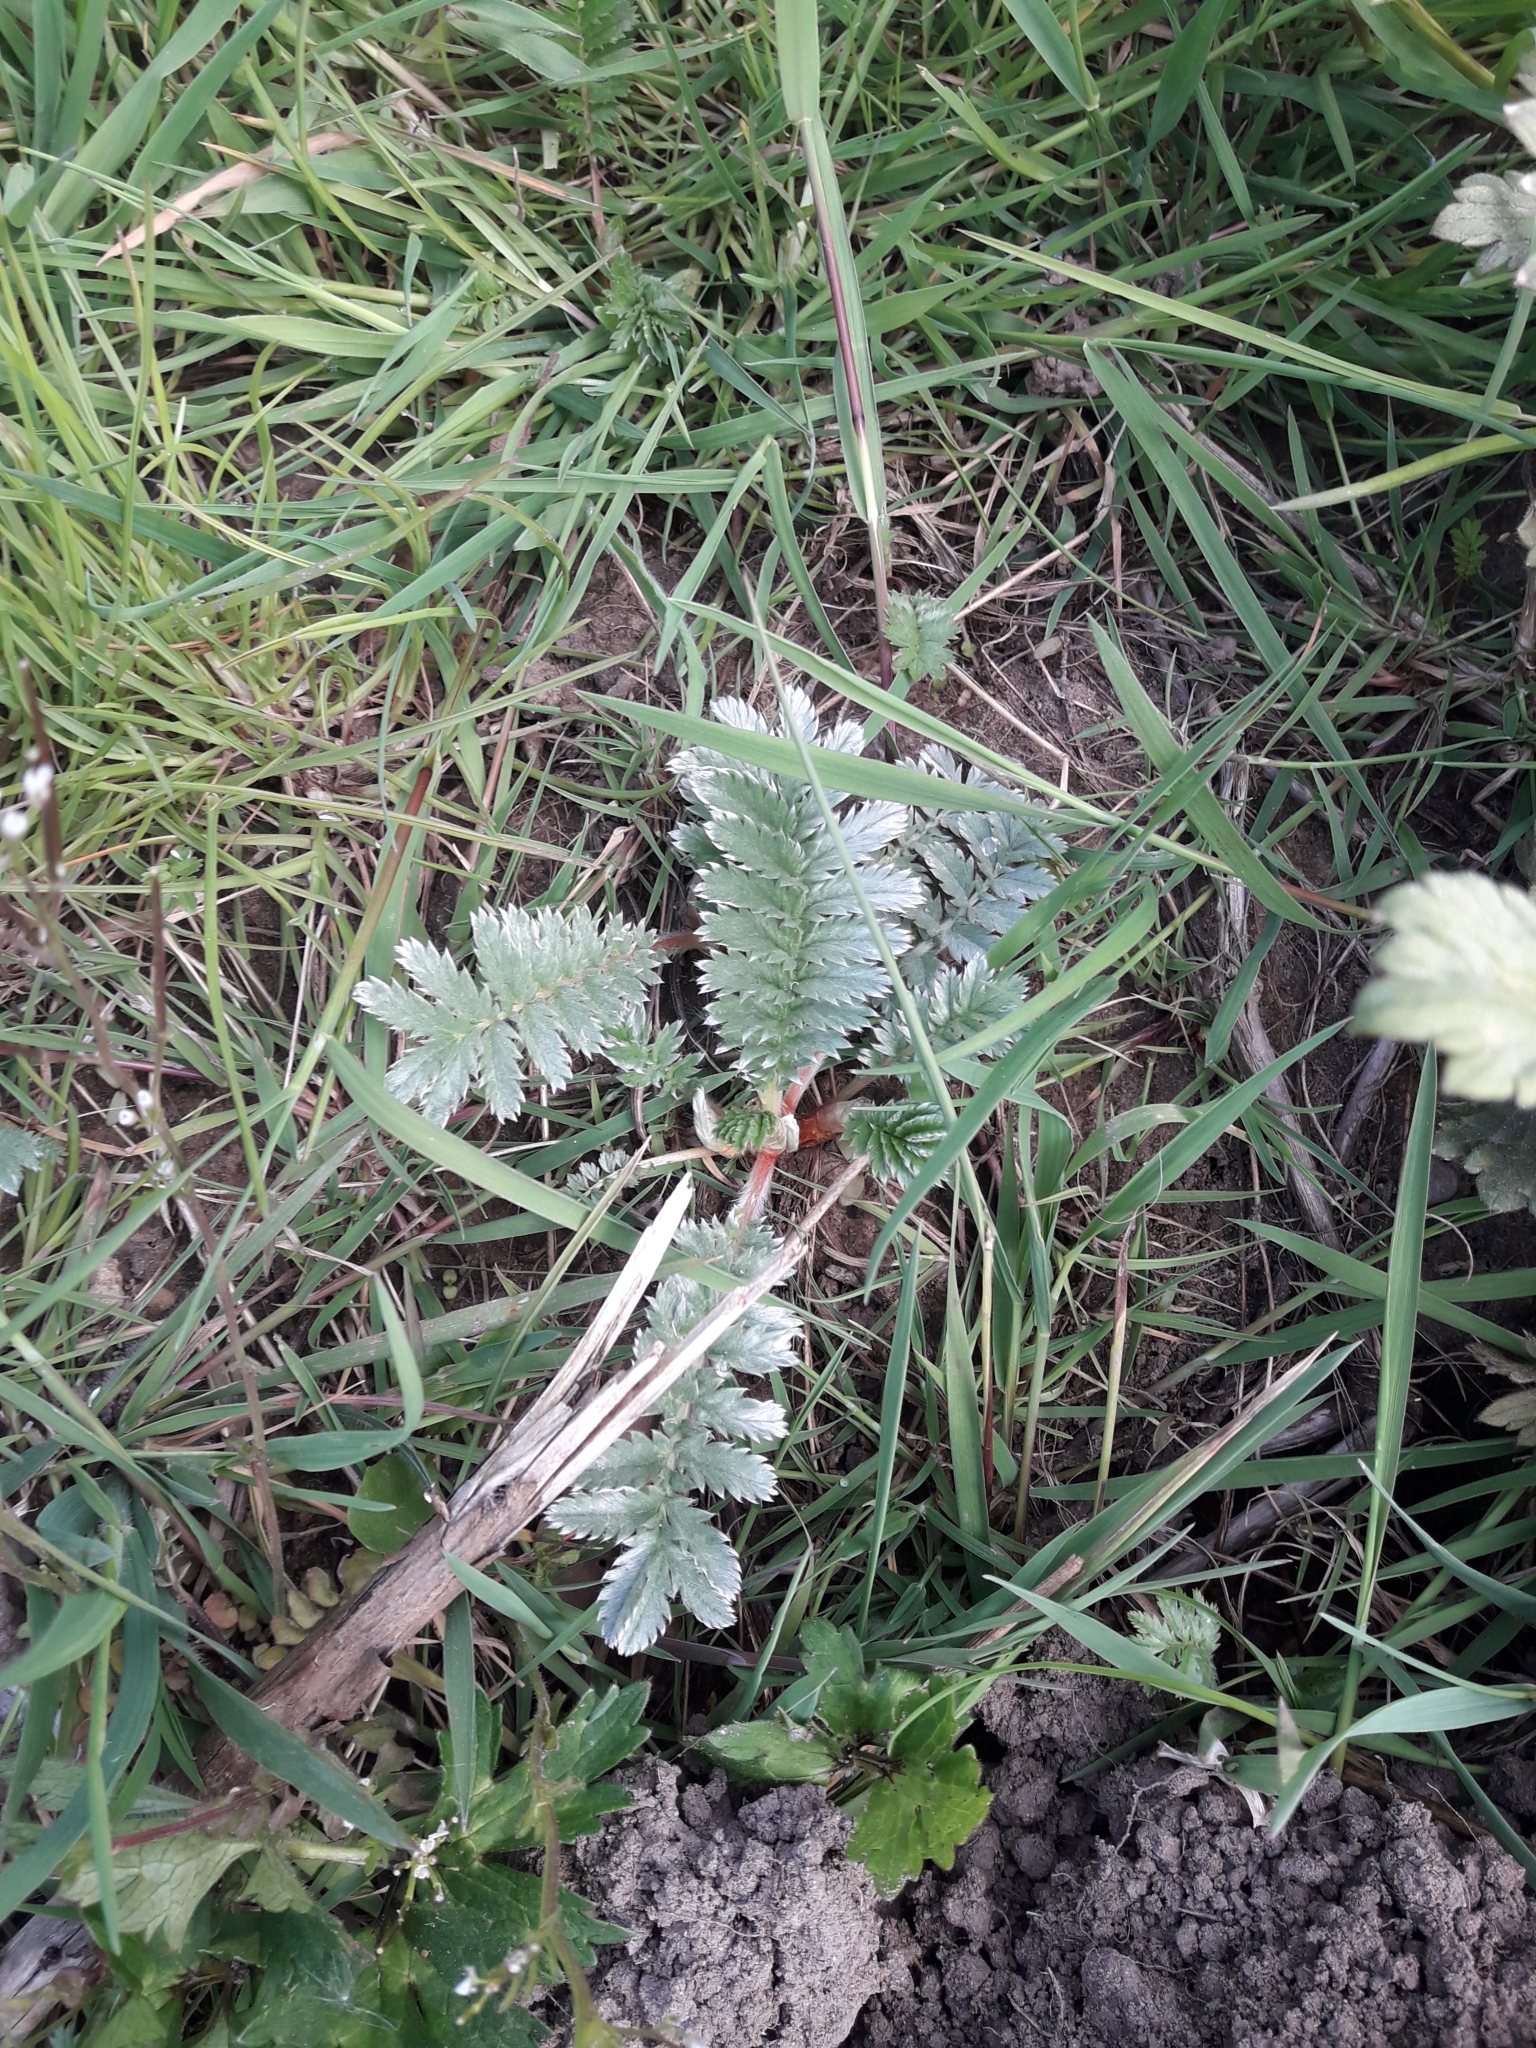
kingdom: Plantae
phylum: Tracheophyta
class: Magnoliopsida
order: Rosales
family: Rosaceae
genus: Argentina
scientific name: Argentina anserina
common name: Common silverweed
